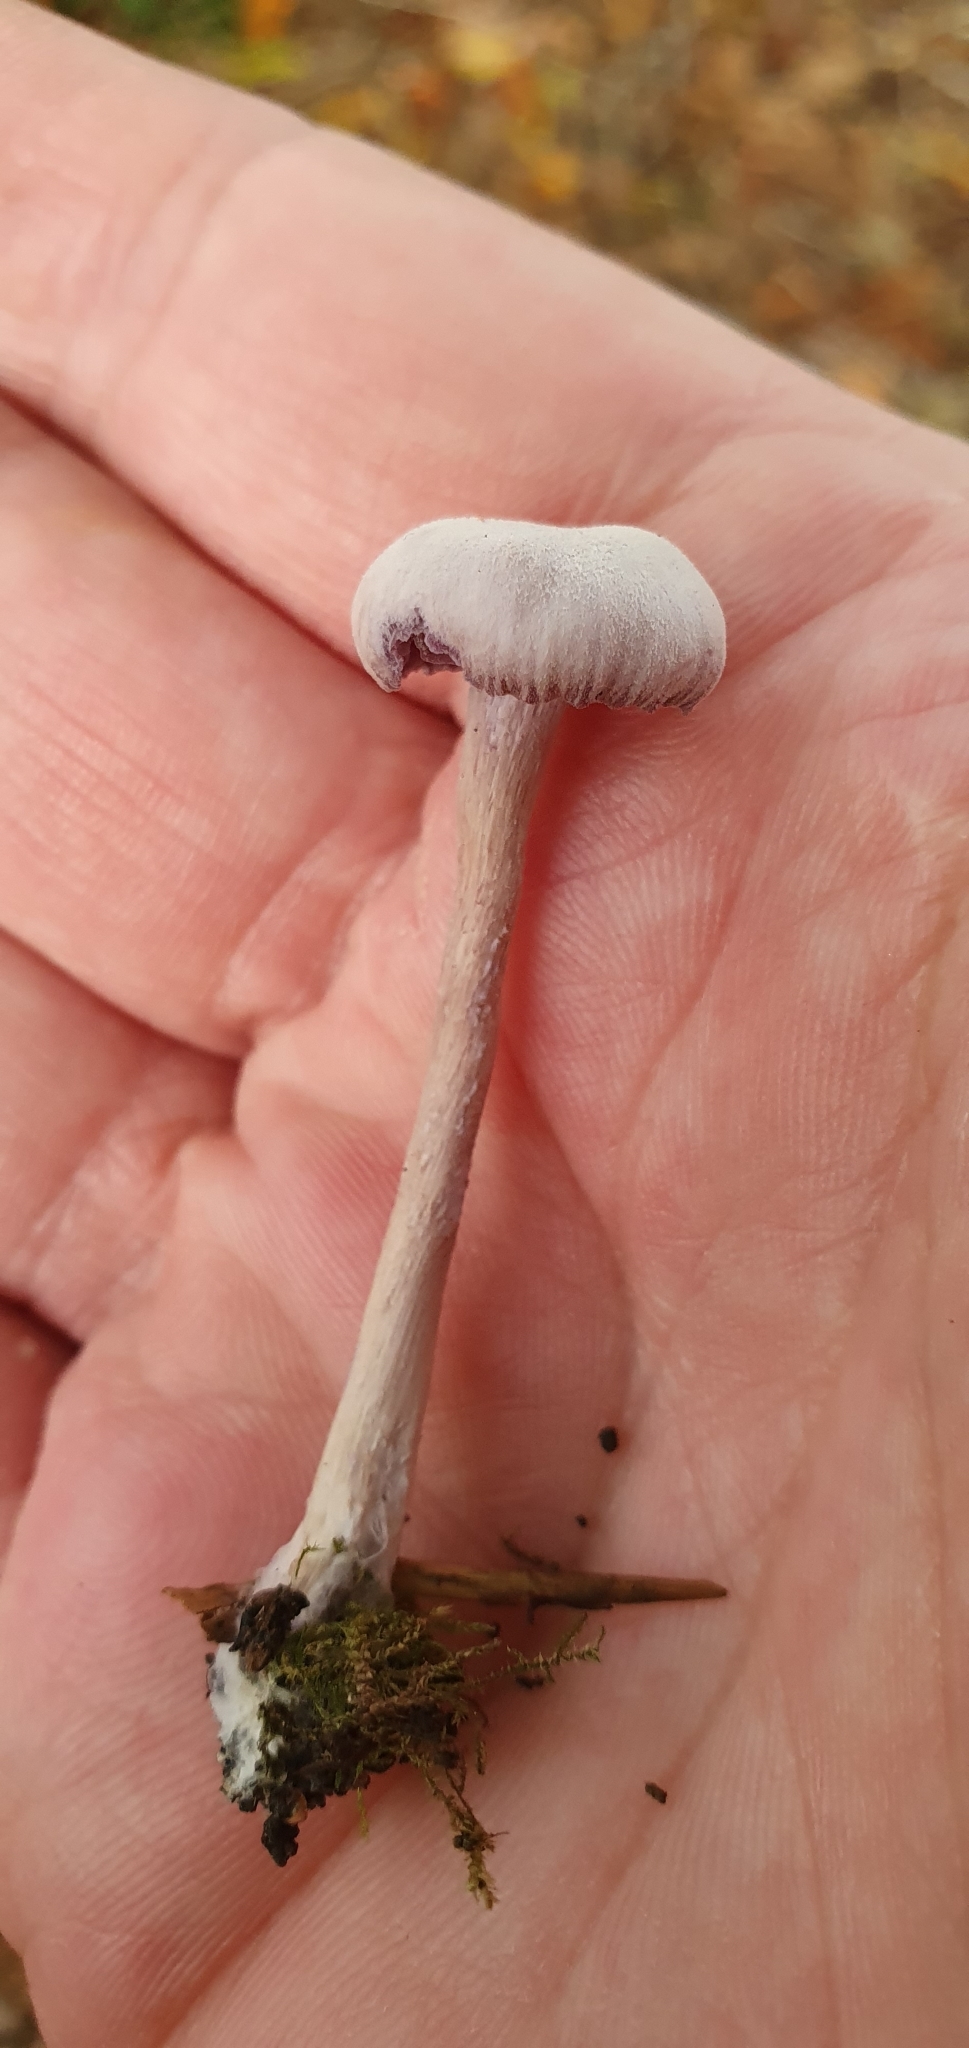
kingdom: Fungi
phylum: Basidiomycota
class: Agaricomycetes
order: Agaricales
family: Hydnangiaceae
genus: Laccaria
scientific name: Laccaria amethystina
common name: Amethyst deceiver
